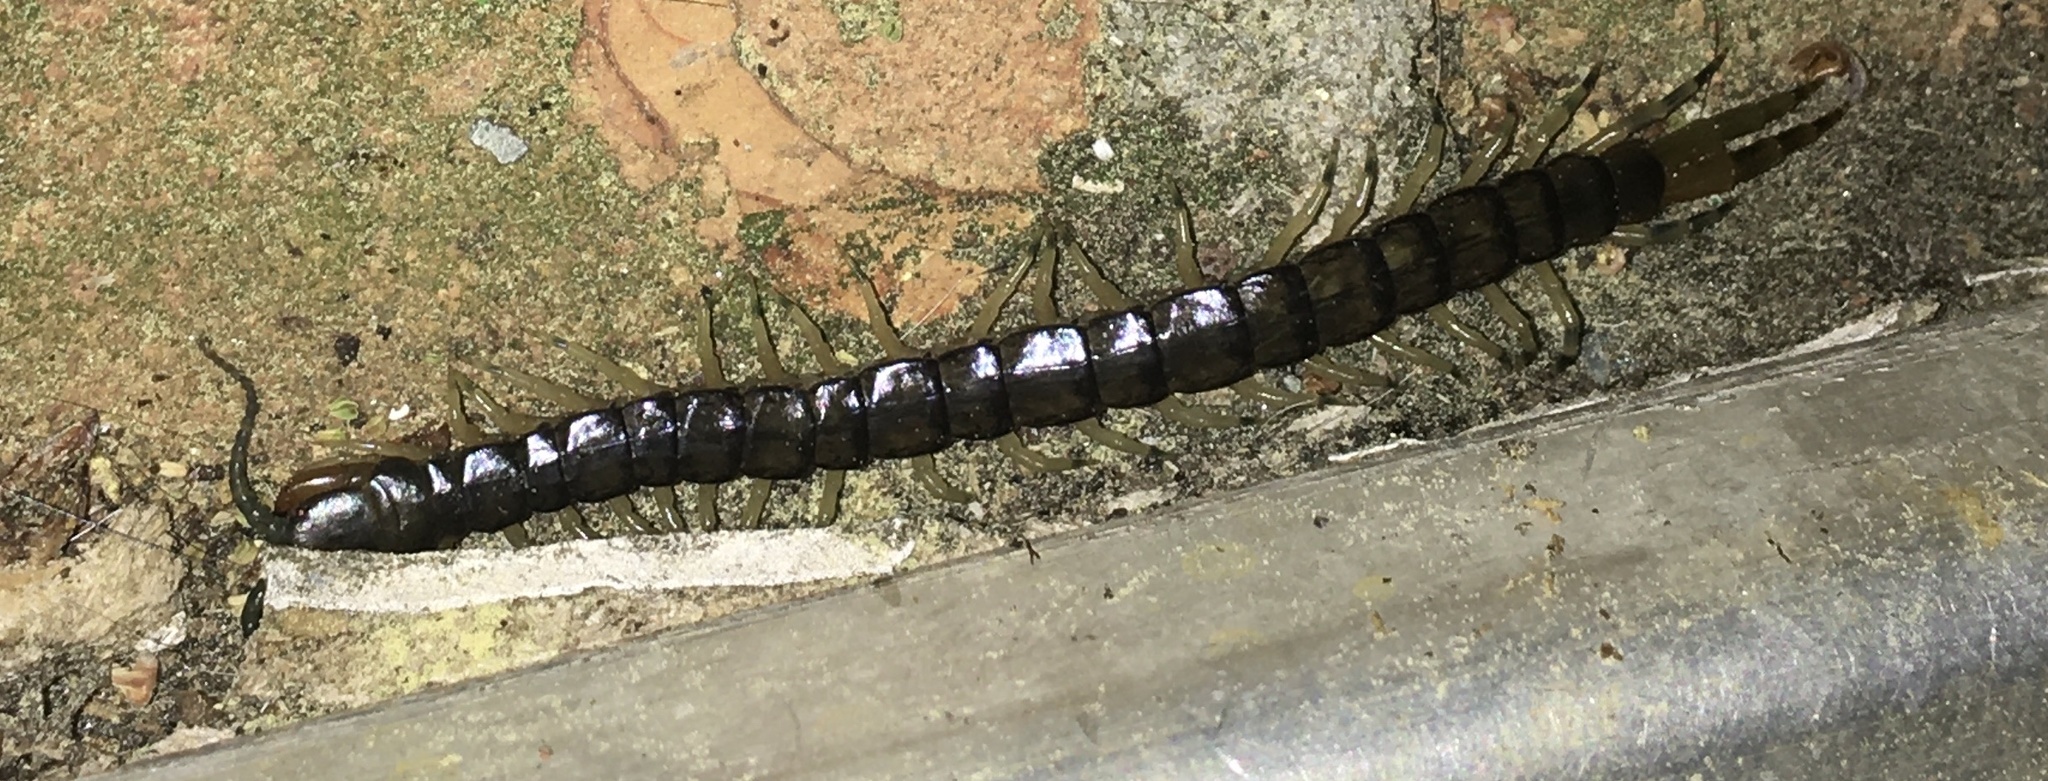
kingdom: Animalia
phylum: Arthropoda
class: Chilopoda
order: Scolopendromorpha
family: Scolopendridae
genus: Hemiscolopendra
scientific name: Hemiscolopendra marginata
